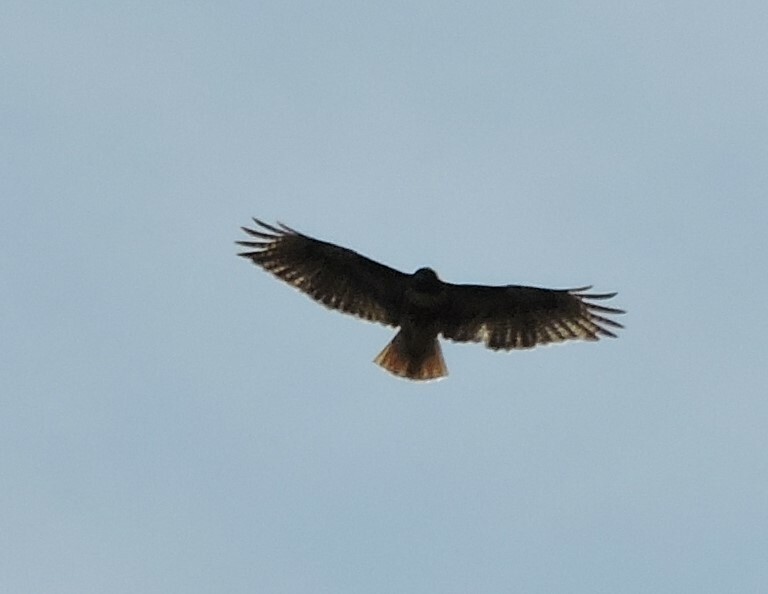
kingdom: Animalia
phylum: Chordata
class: Aves
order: Accipitriformes
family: Accipitridae
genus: Buteo
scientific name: Buteo jamaicensis
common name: Red-tailed hawk
